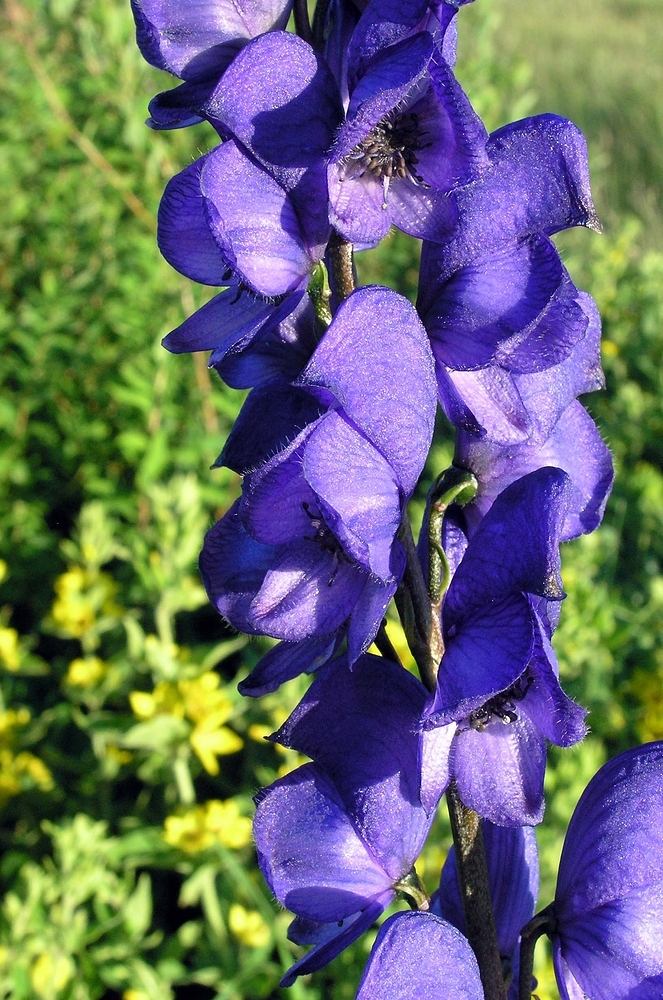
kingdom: Plantae
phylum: Tracheophyta
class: Magnoliopsida
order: Ranunculales
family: Ranunculaceae
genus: Aconitum
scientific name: Aconitum napellus
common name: Garden monkshood
